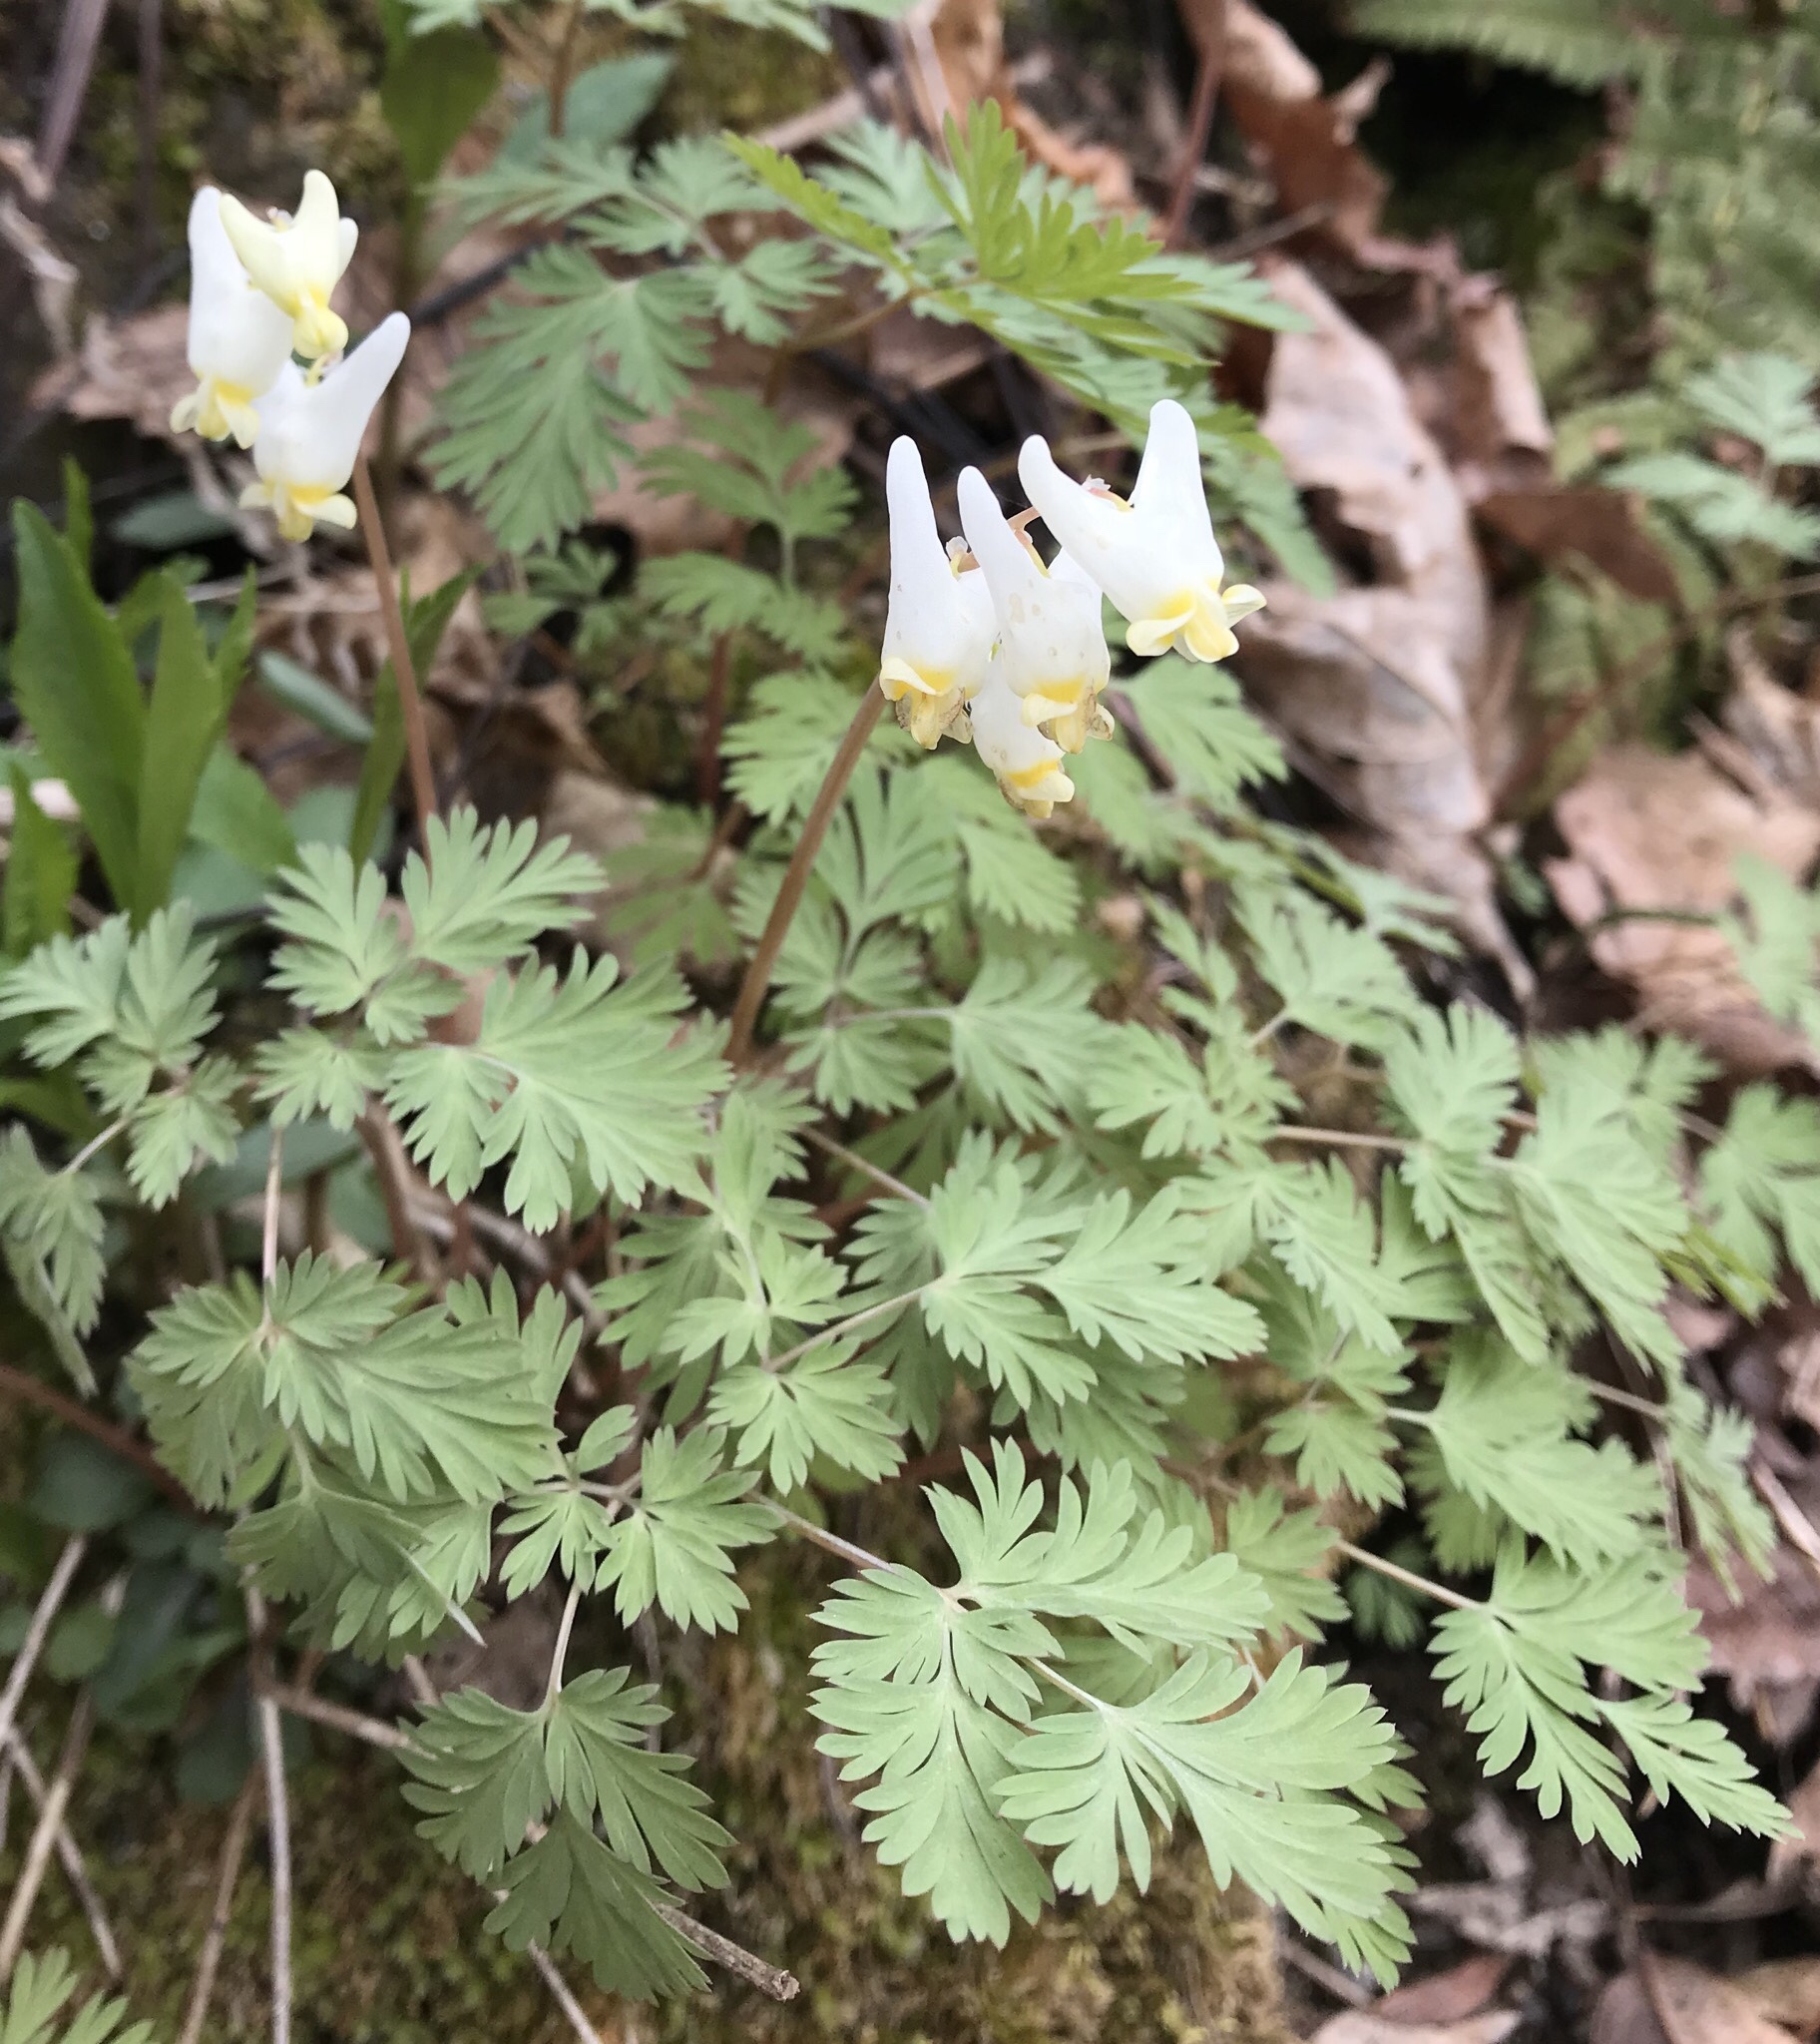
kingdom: Plantae
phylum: Tracheophyta
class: Magnoliopsida
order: Ranunculales
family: Papaveraceae
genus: Dicentra
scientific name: Dicentra cucullaria
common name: Dutchman's breeches
